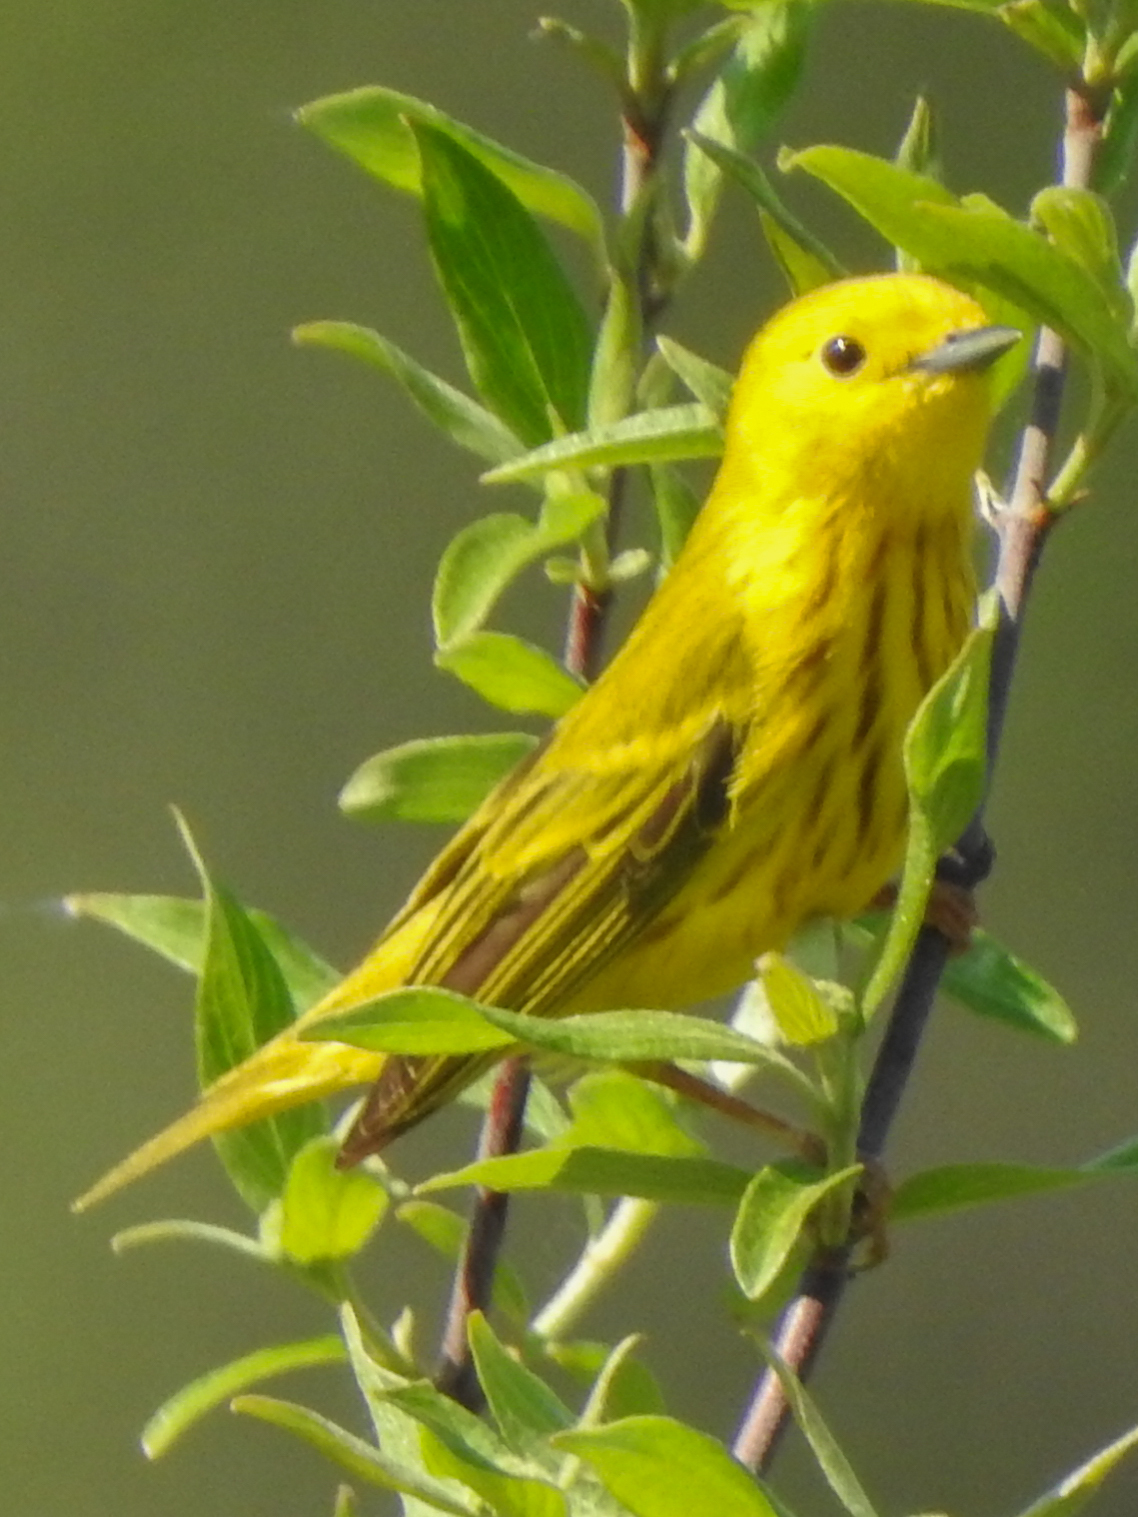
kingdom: Animalia
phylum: Chordata
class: Aves
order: Passeriformes
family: Parulidae
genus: Setophaga
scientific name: Setophaga petechia
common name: Yellow warbler
